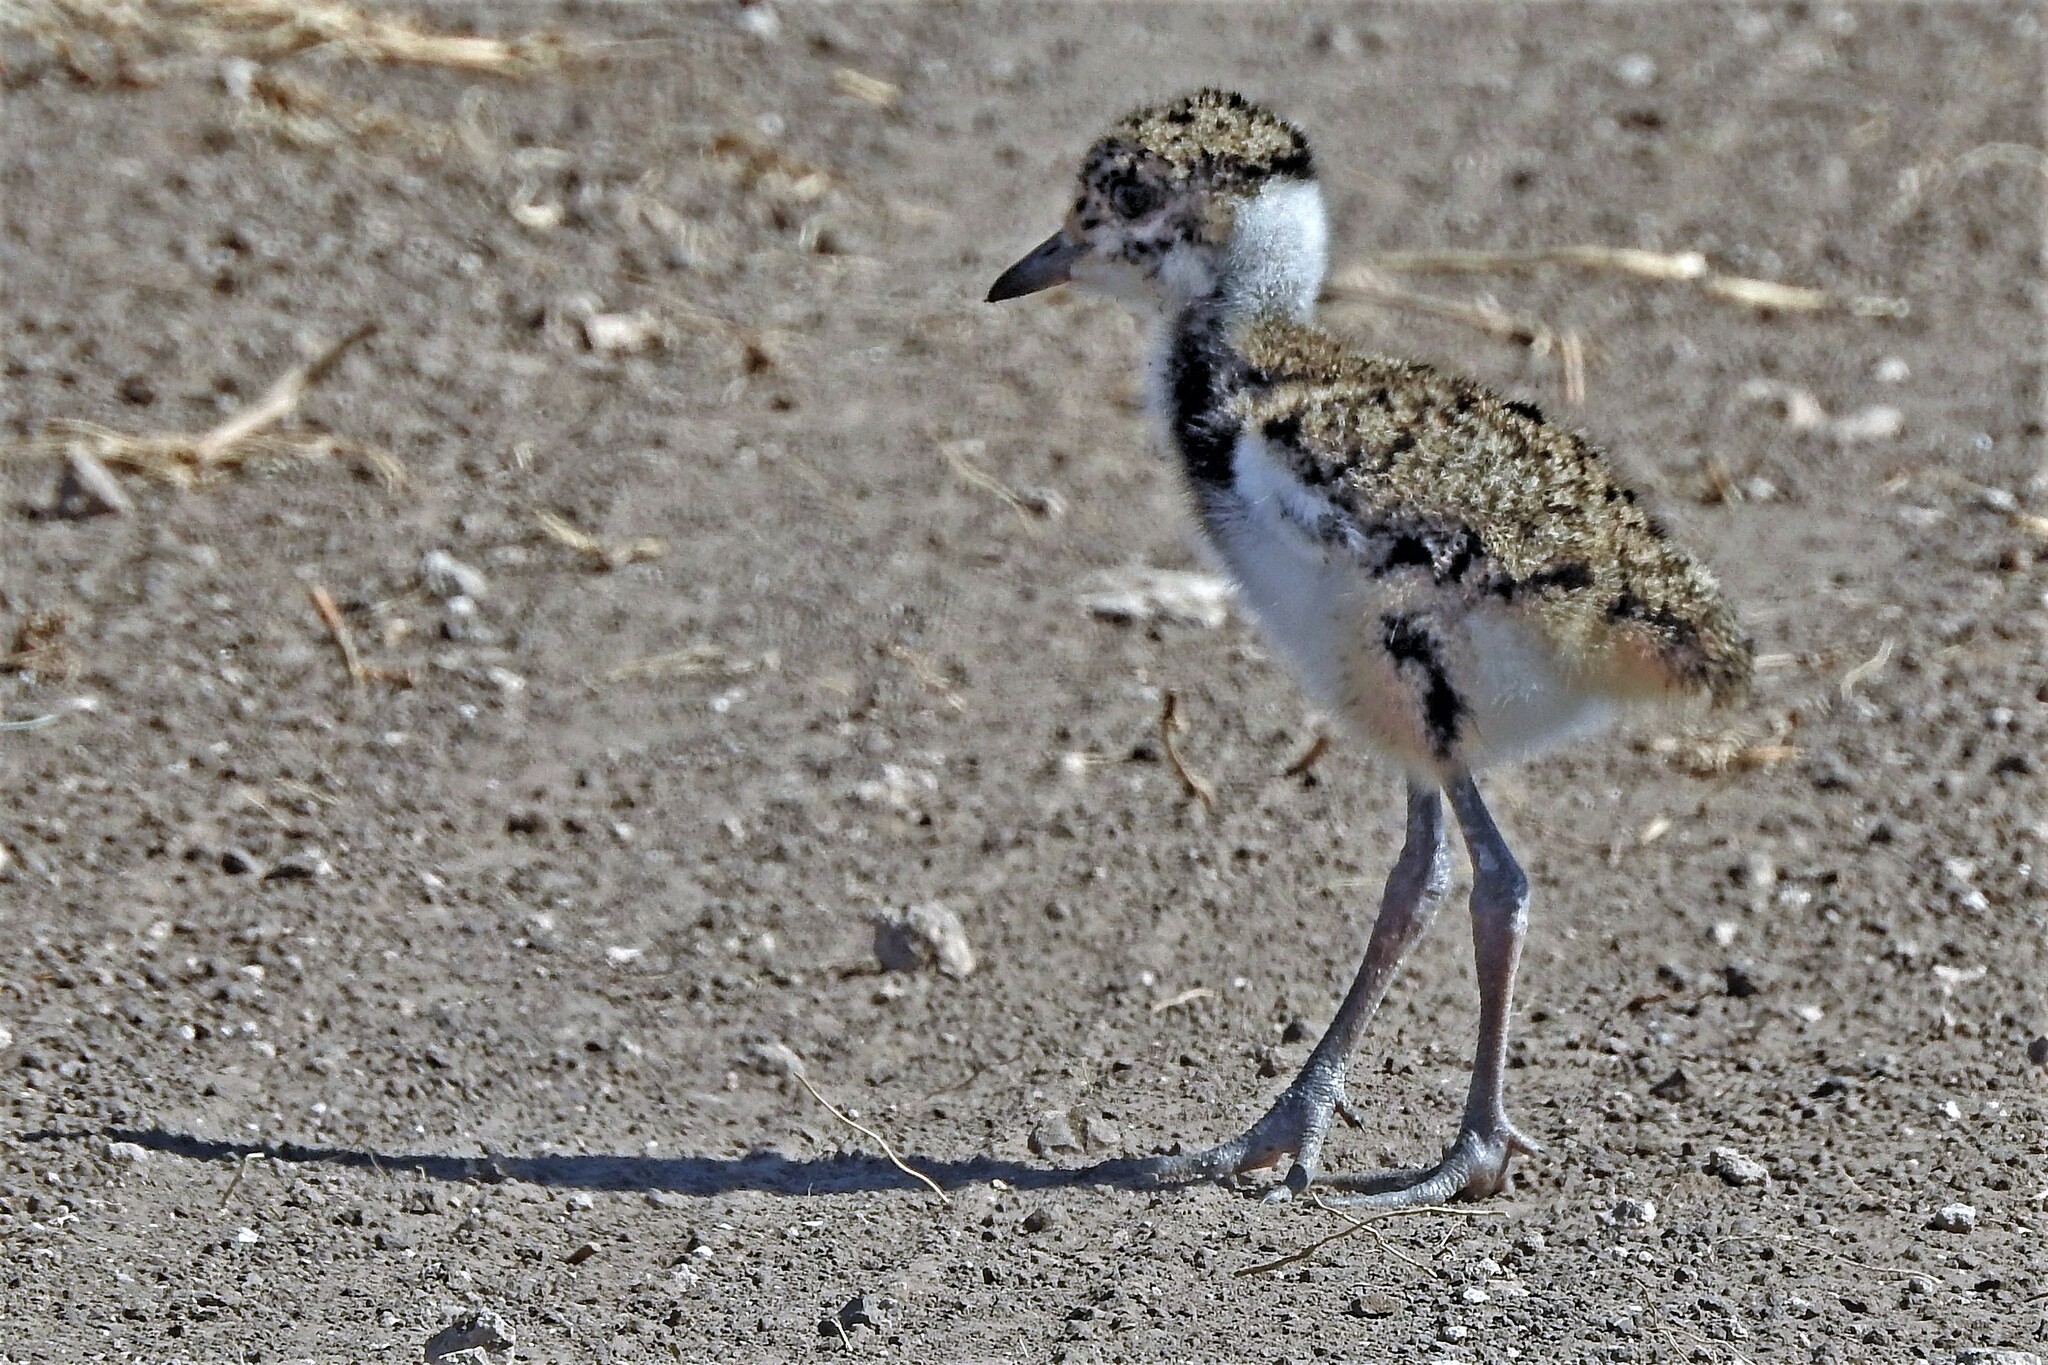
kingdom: Animalia
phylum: Chordata
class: Aves
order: Charadriiformes
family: Charadriidae
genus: Vanellus
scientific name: Vanellus chilensis
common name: Southern lapwing
